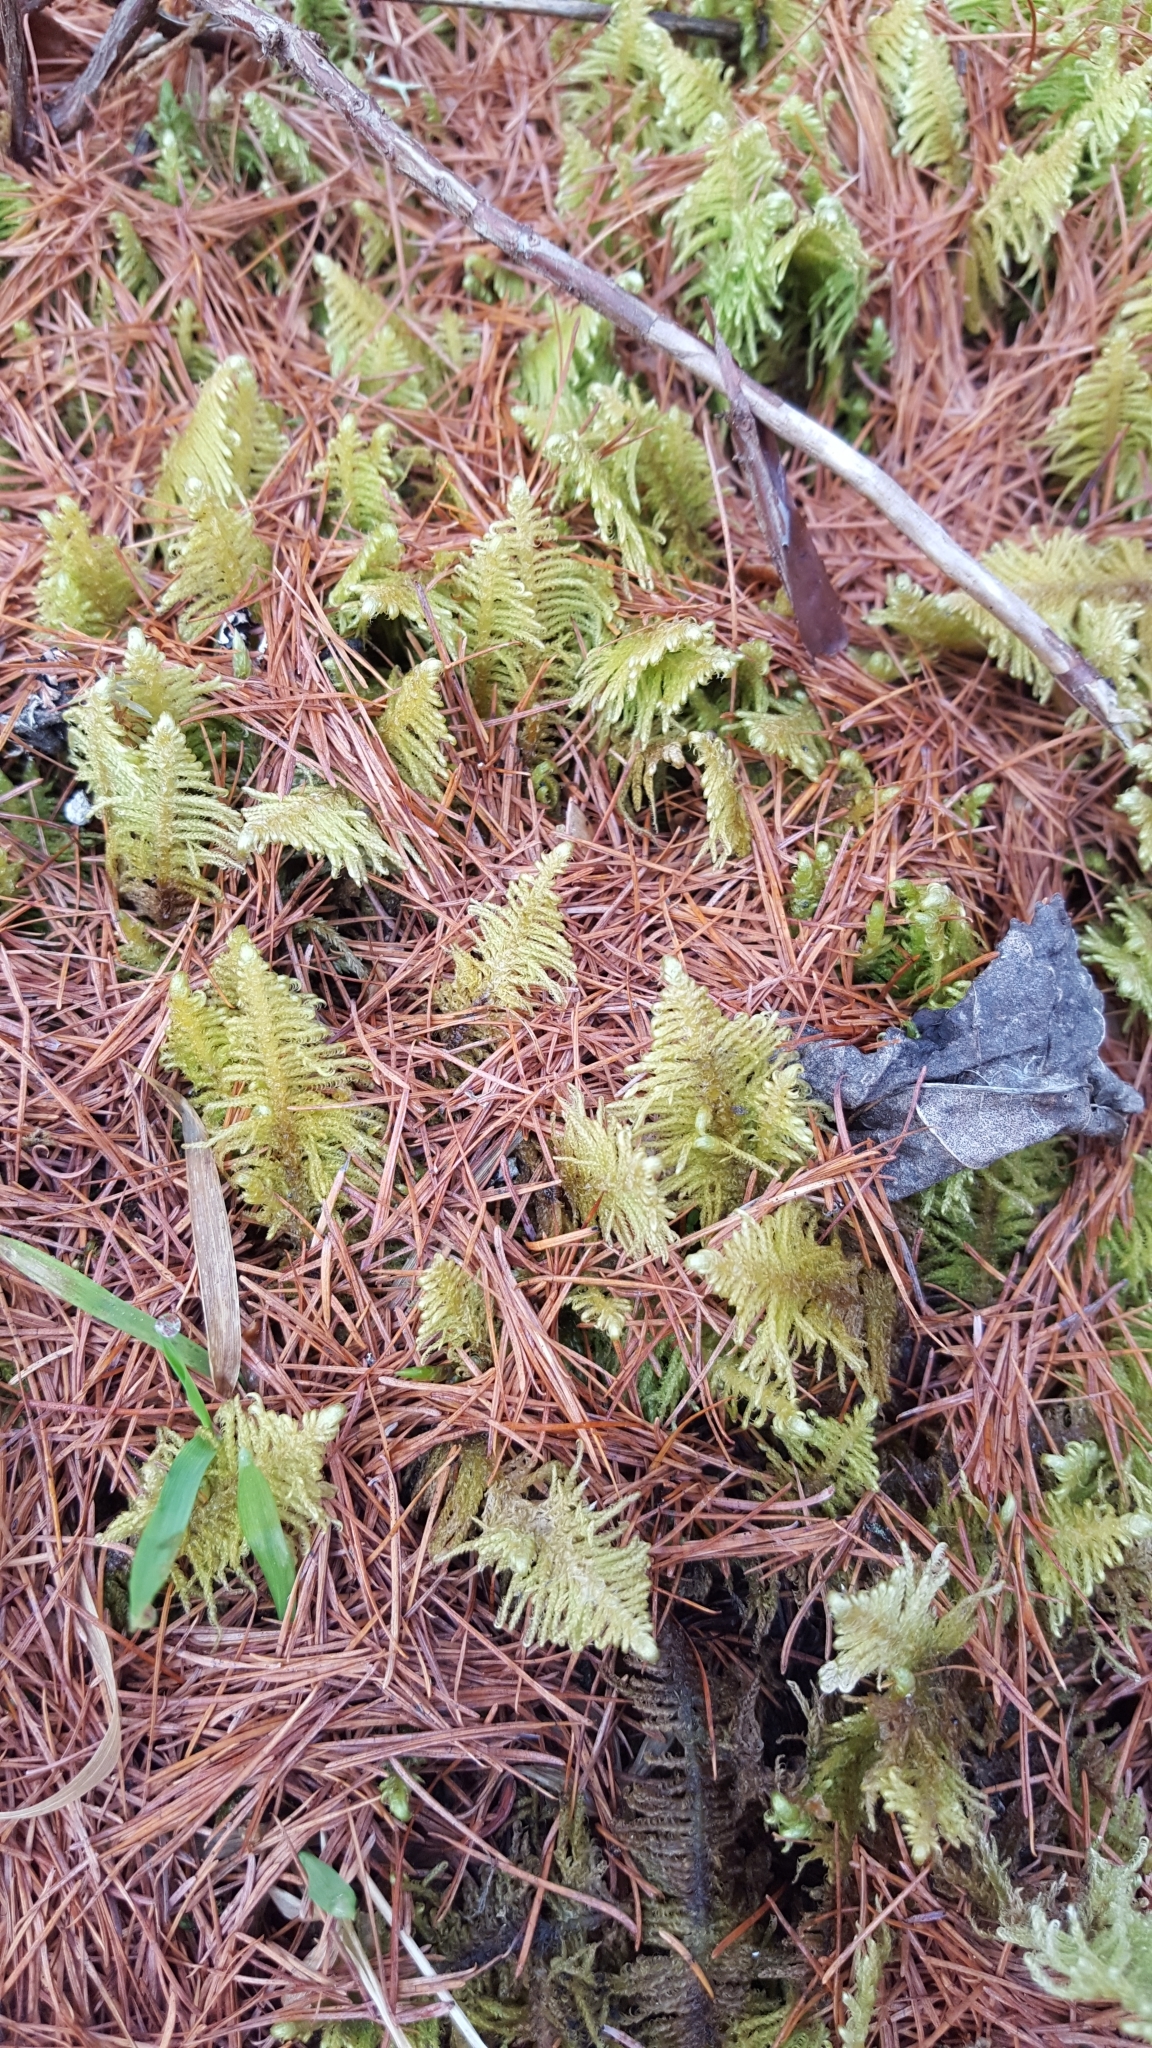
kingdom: Plantae
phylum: Bryophyta
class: Bryopsida
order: Hypnales
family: Pylaisiaceae
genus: Ptilium
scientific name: Ptilium crista-castrensis
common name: Knight's plume moss
